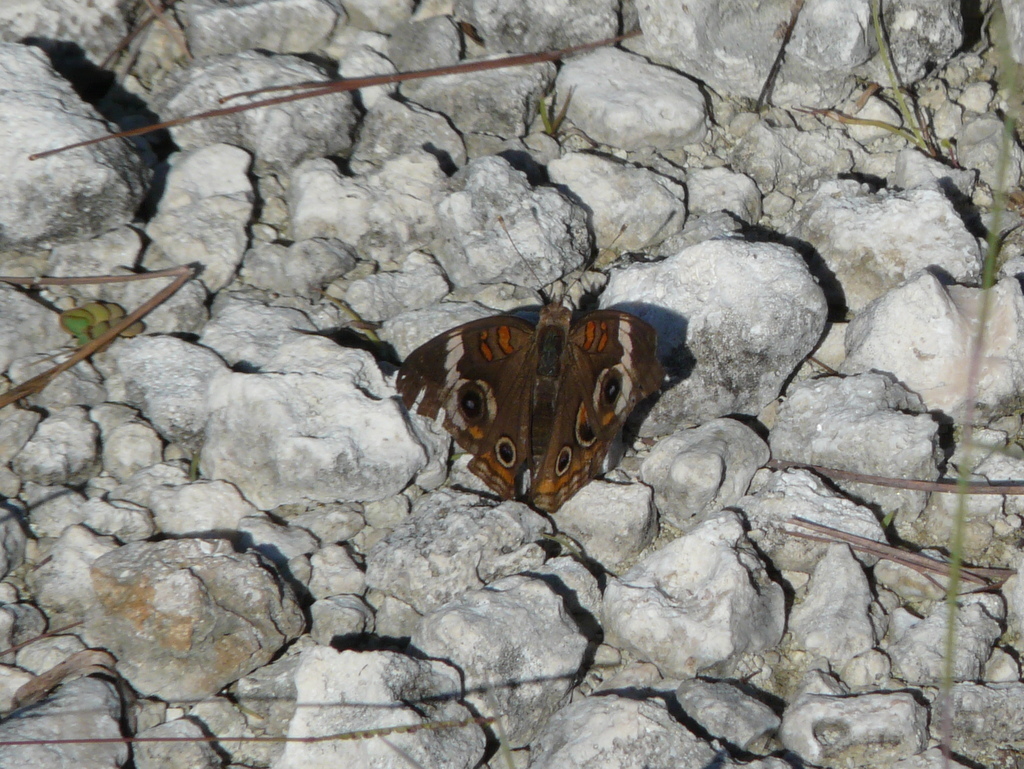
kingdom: Animalia
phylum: Arthropoda
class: Insecta
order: Lepidoptera
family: Nymphalidae
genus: Junonia
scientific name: Junonia coenia
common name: Common buckeye
